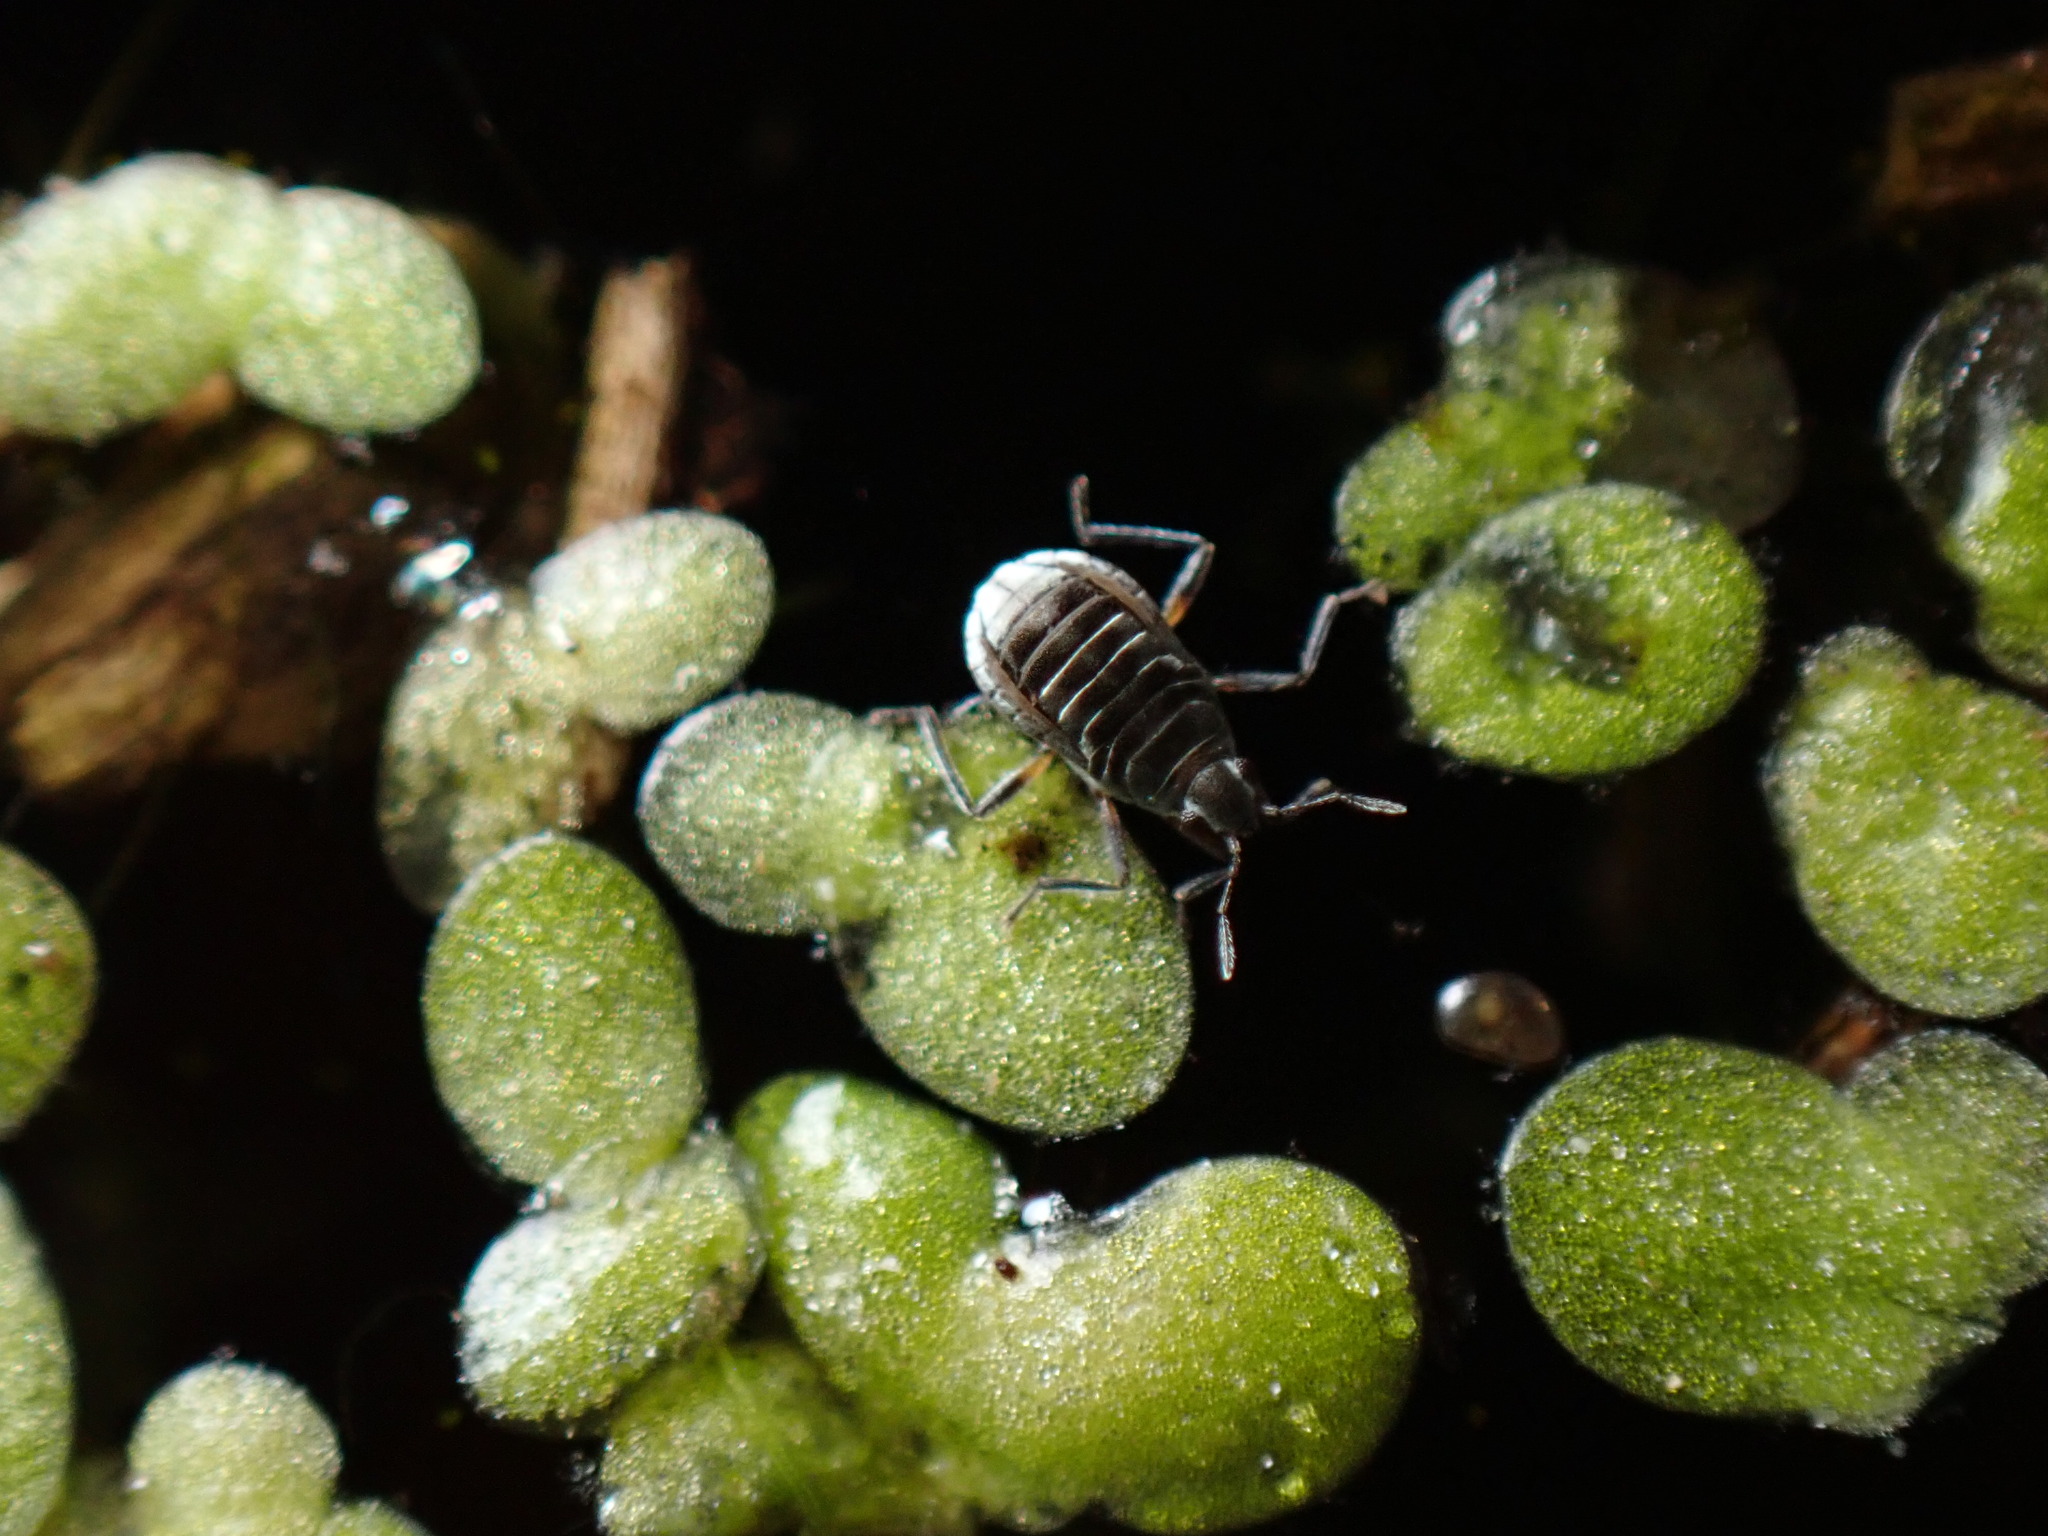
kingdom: Animalia
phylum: Arthropoda
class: Insecta
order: Hemiptera
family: Veliidae
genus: Microvelia
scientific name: Microvelia
